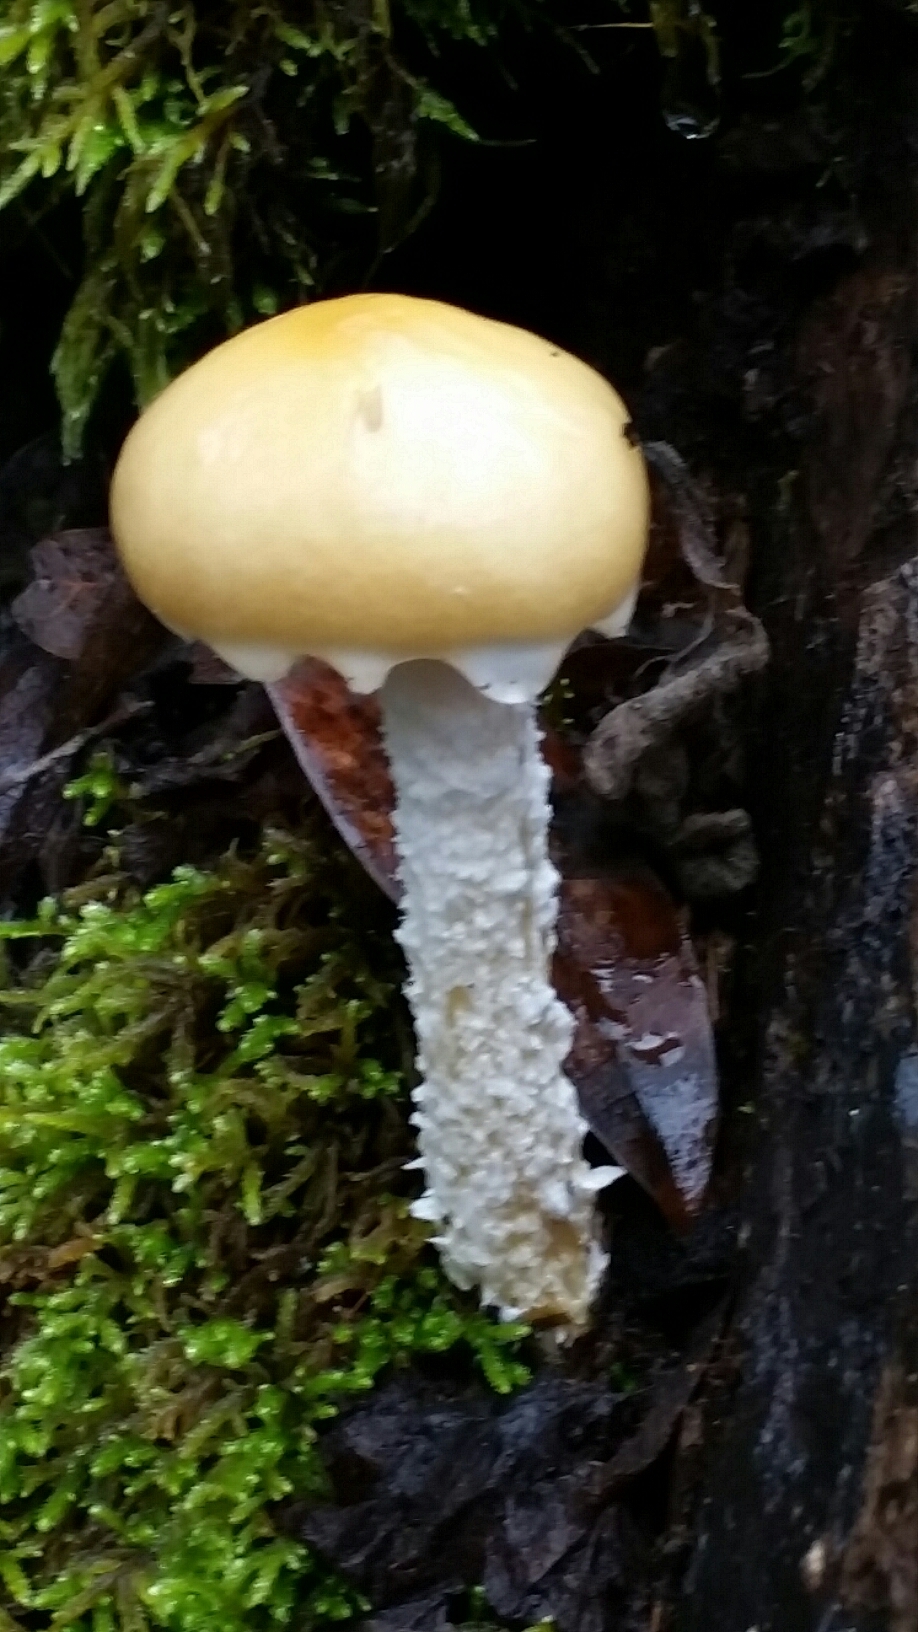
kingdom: Fungi
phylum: Basidiomycota
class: Agaricomycetes
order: Agaricales
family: Strophariaceae
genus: Stropharia
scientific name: Stropharia ambigua
